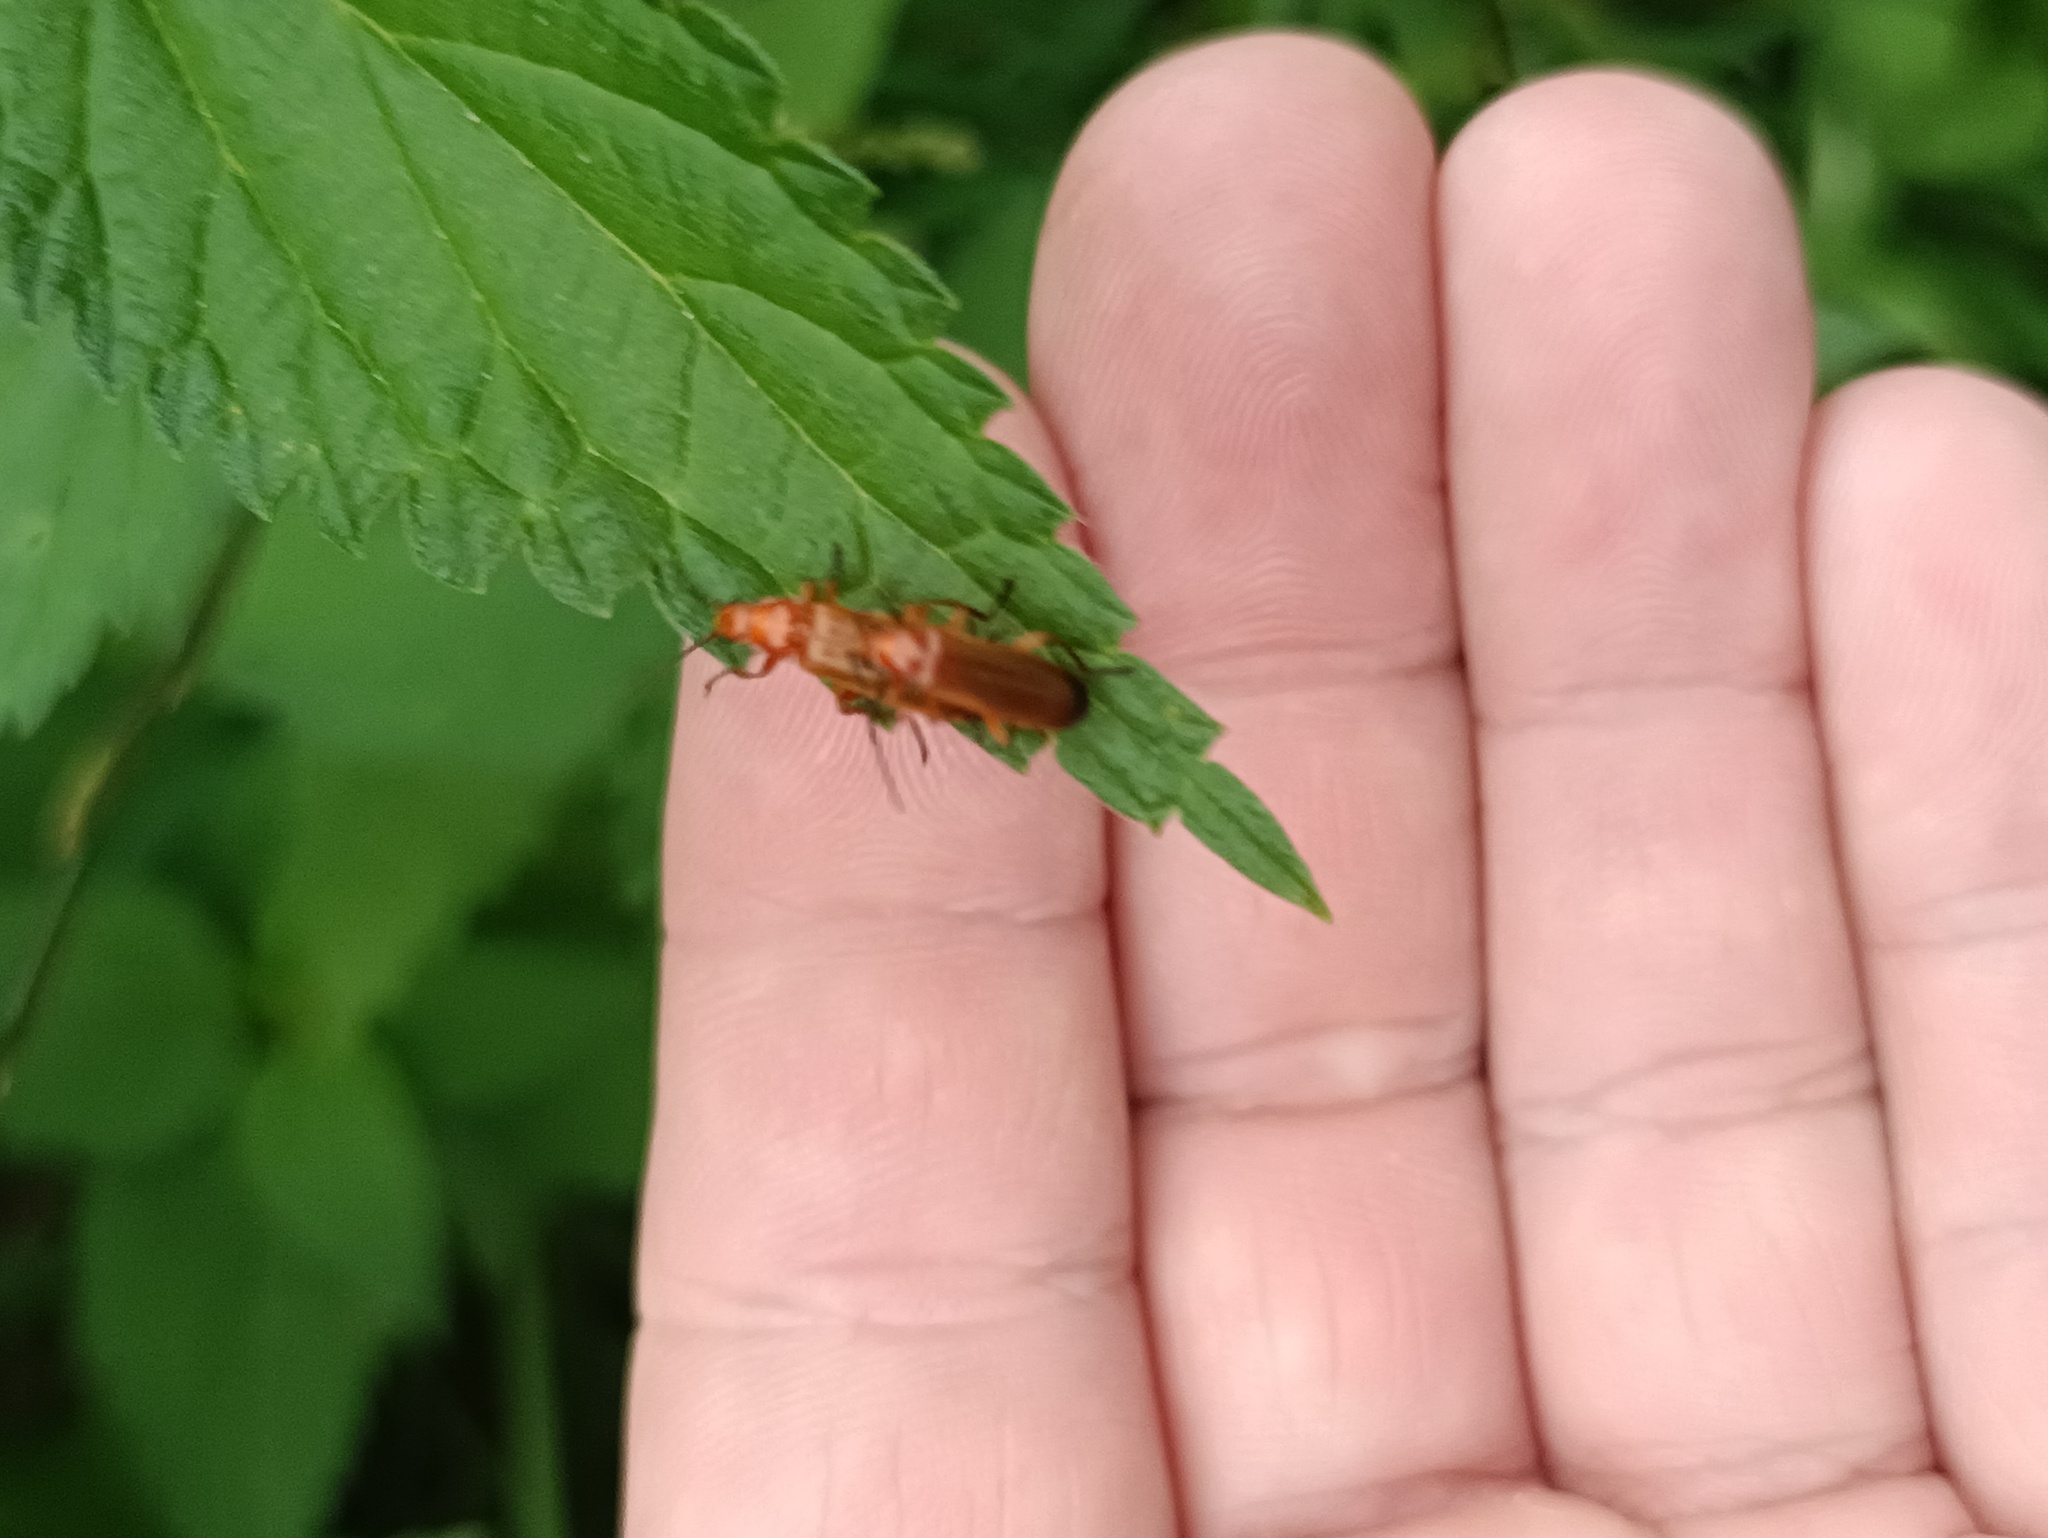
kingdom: Animalia
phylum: Arthropoda
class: Insecta
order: Coleoptera
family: Cantharidae
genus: Rhagonycha
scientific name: Rhagonycha fulva
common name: Common red soldier beetle
